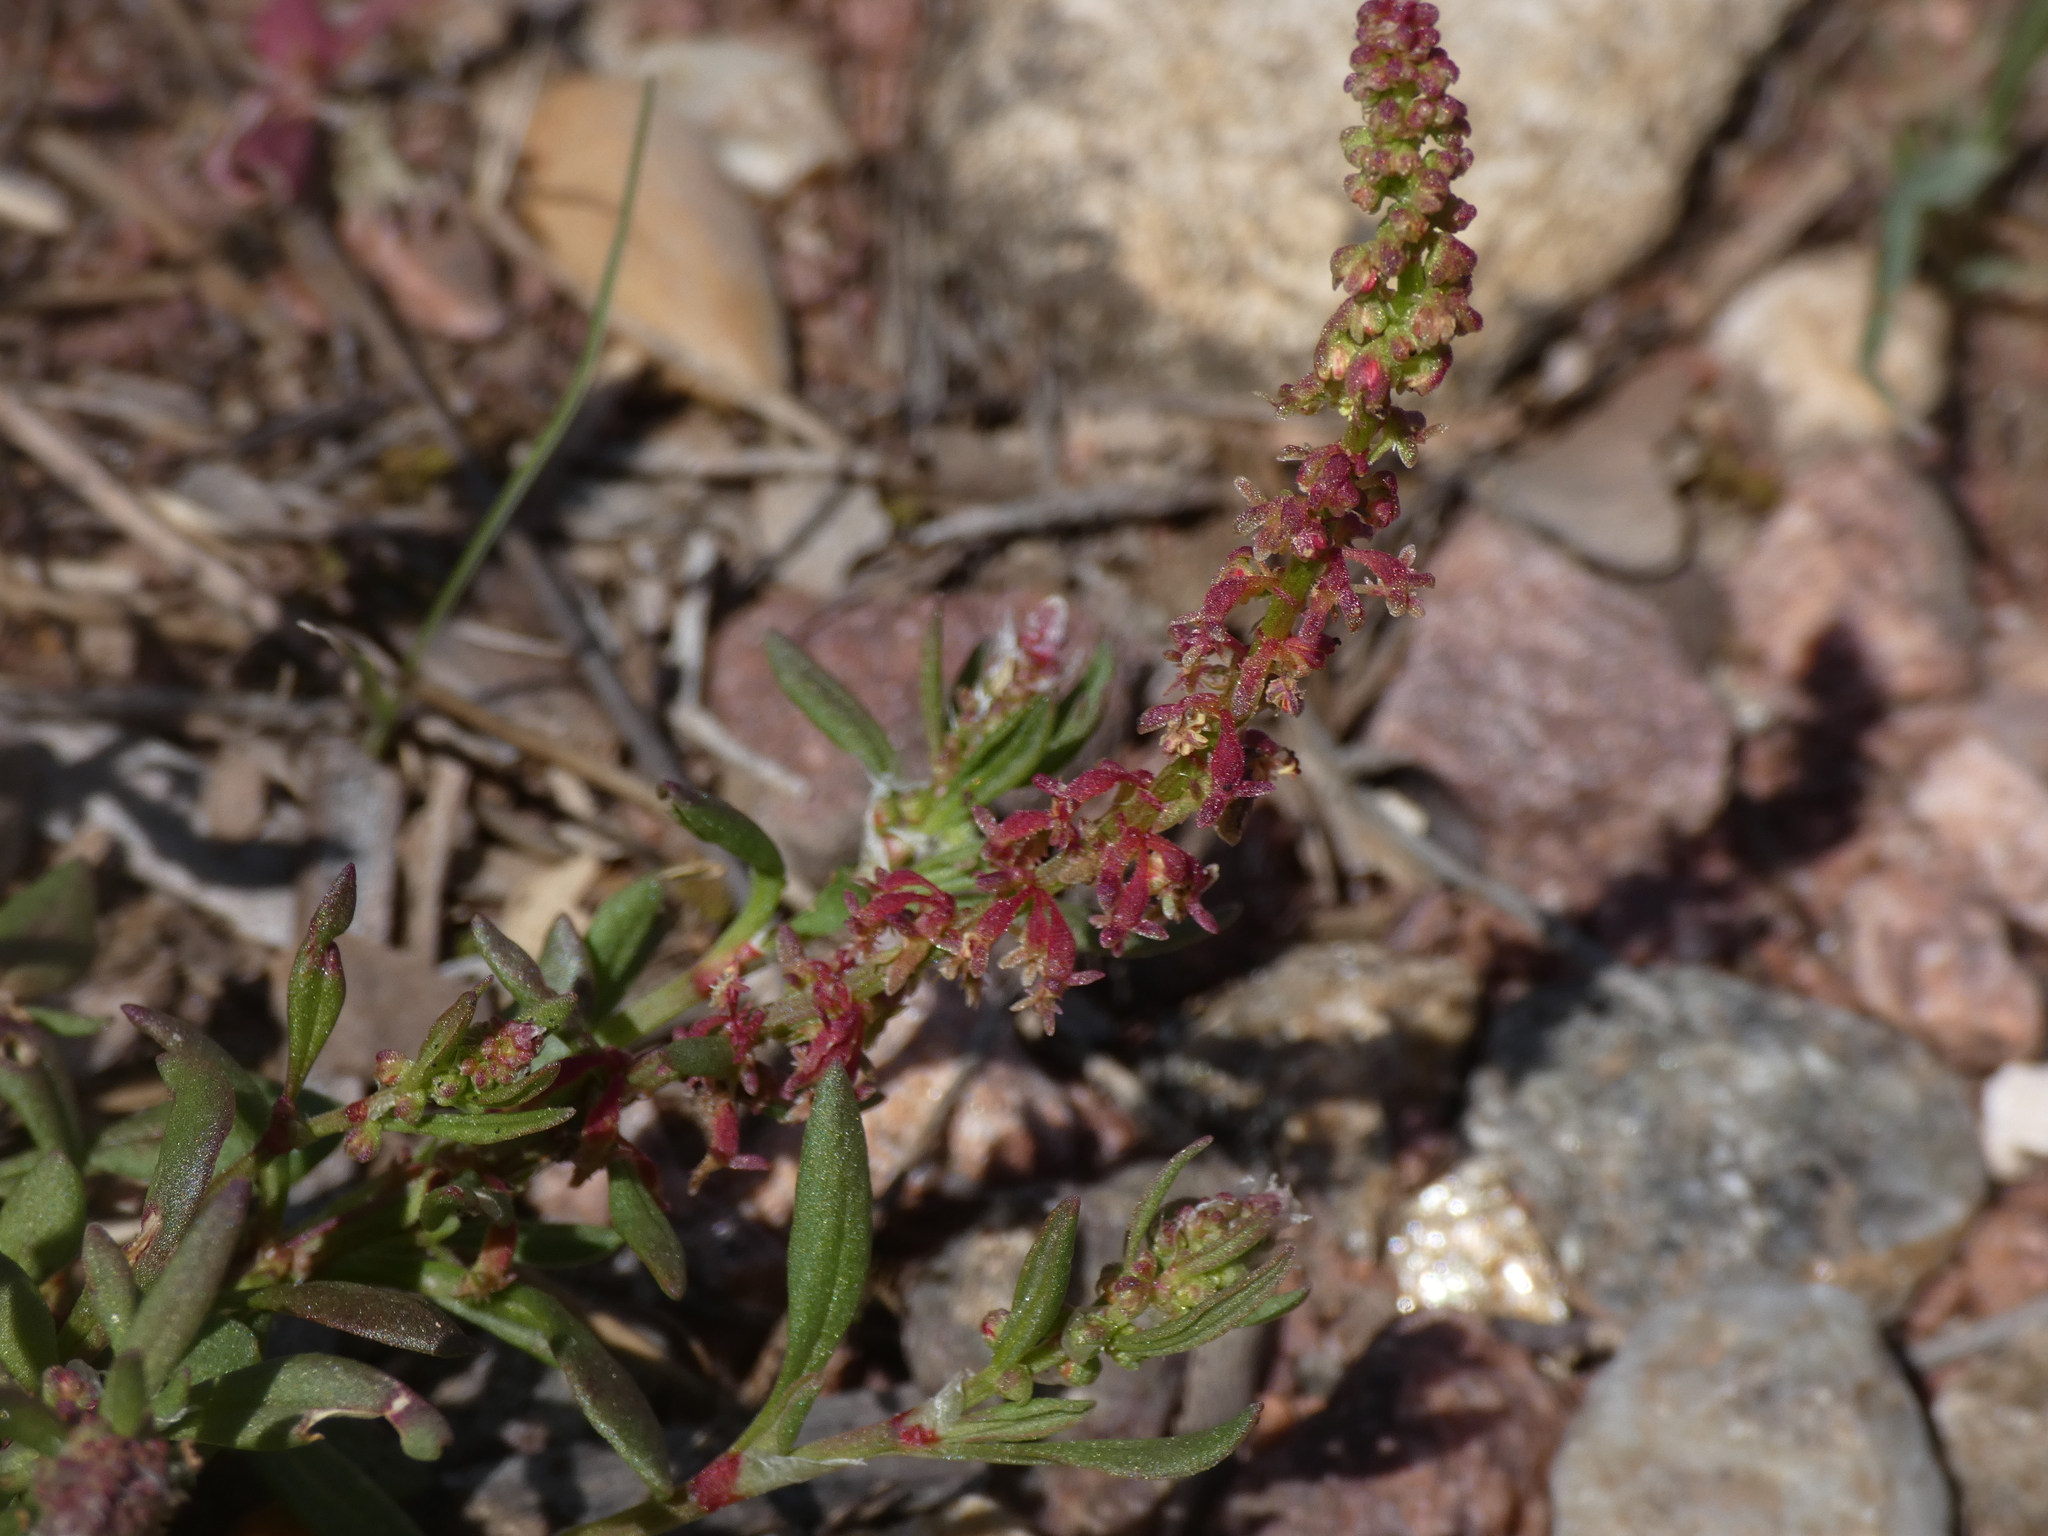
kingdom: Plantae
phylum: Tracheophyta
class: Magnoliopsida
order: Caryophyllales
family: Polygonaceae
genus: Rumex
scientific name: Rumex bucephalophorus
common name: Red dock
